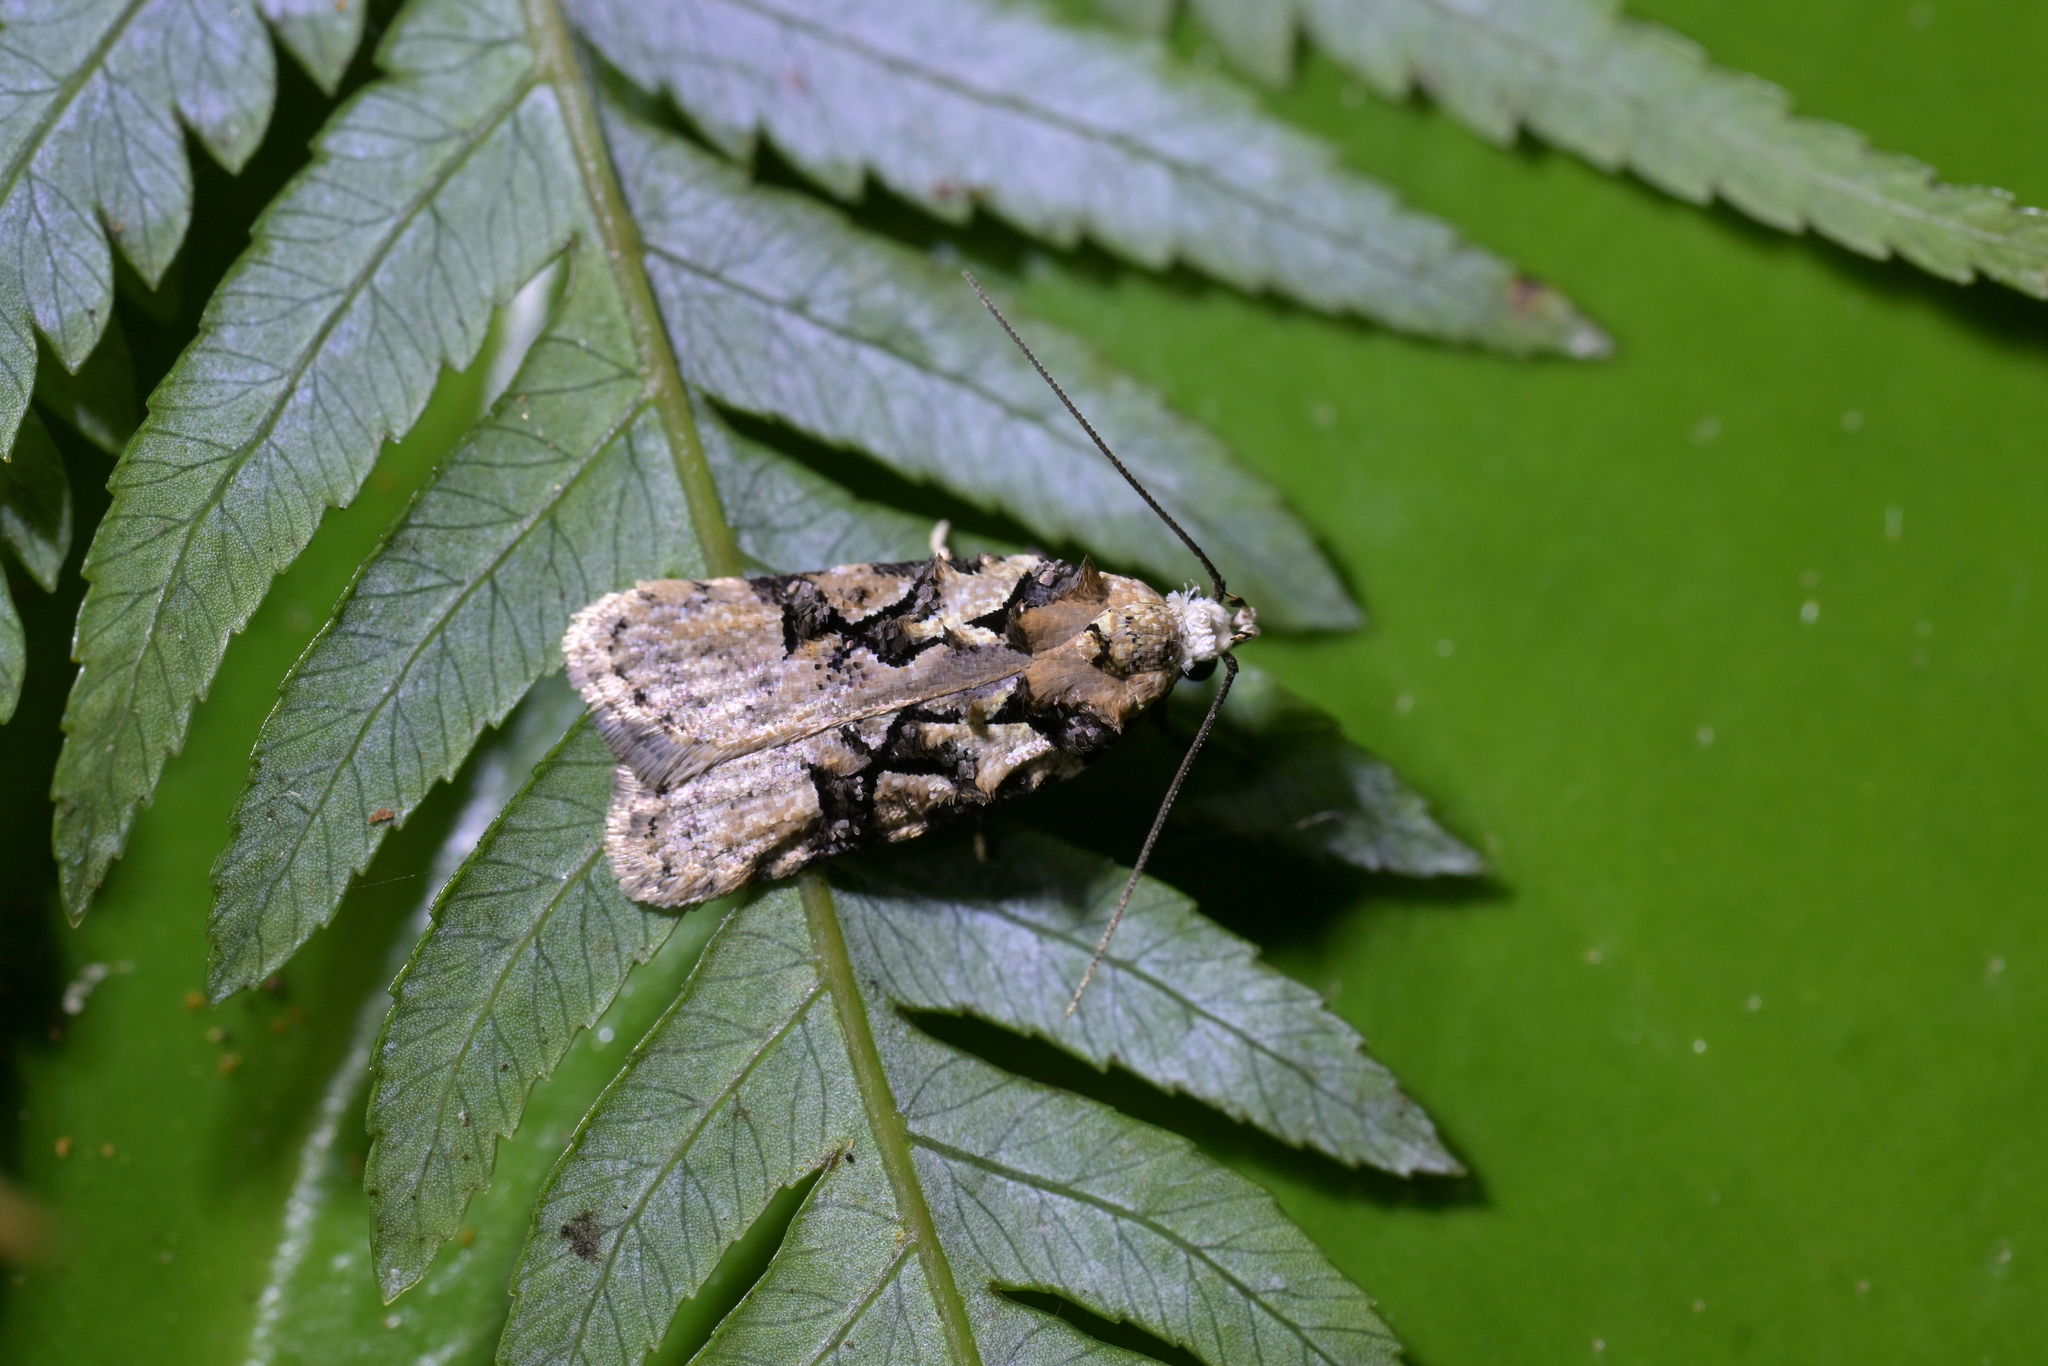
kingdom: Animalia
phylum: Arthropoda
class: Insecta
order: Lepidoptera
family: Oecophoridae
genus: Izatha
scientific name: Izatha epiphanes
